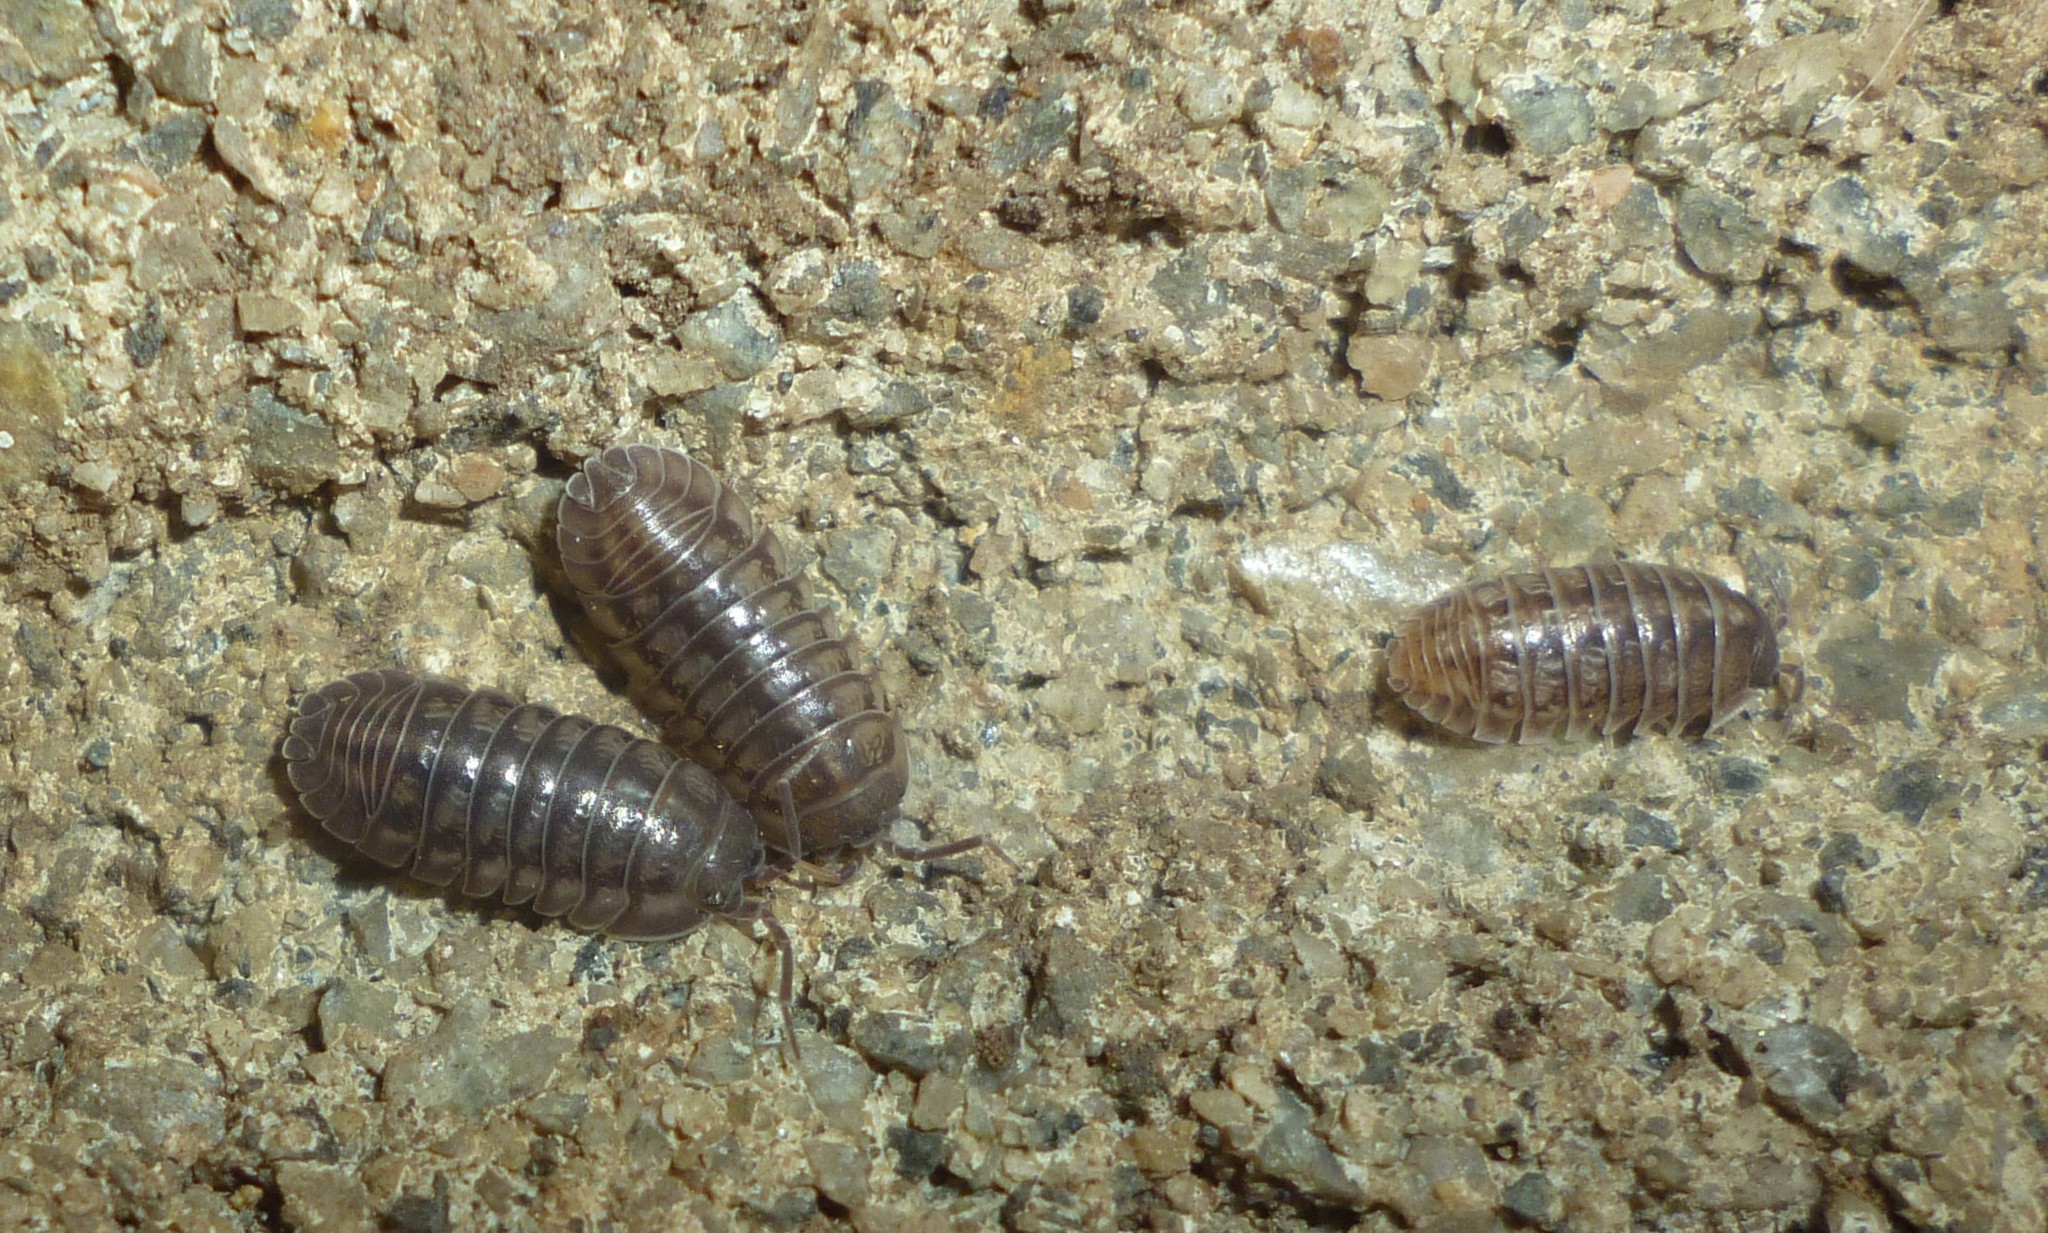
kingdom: Animalia
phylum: Arthropoda
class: Malacostraca
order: Isopoda
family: Armadillidiidae
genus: Armadillidium
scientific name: Armadillidium vulgare
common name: Common pill woodlouse
